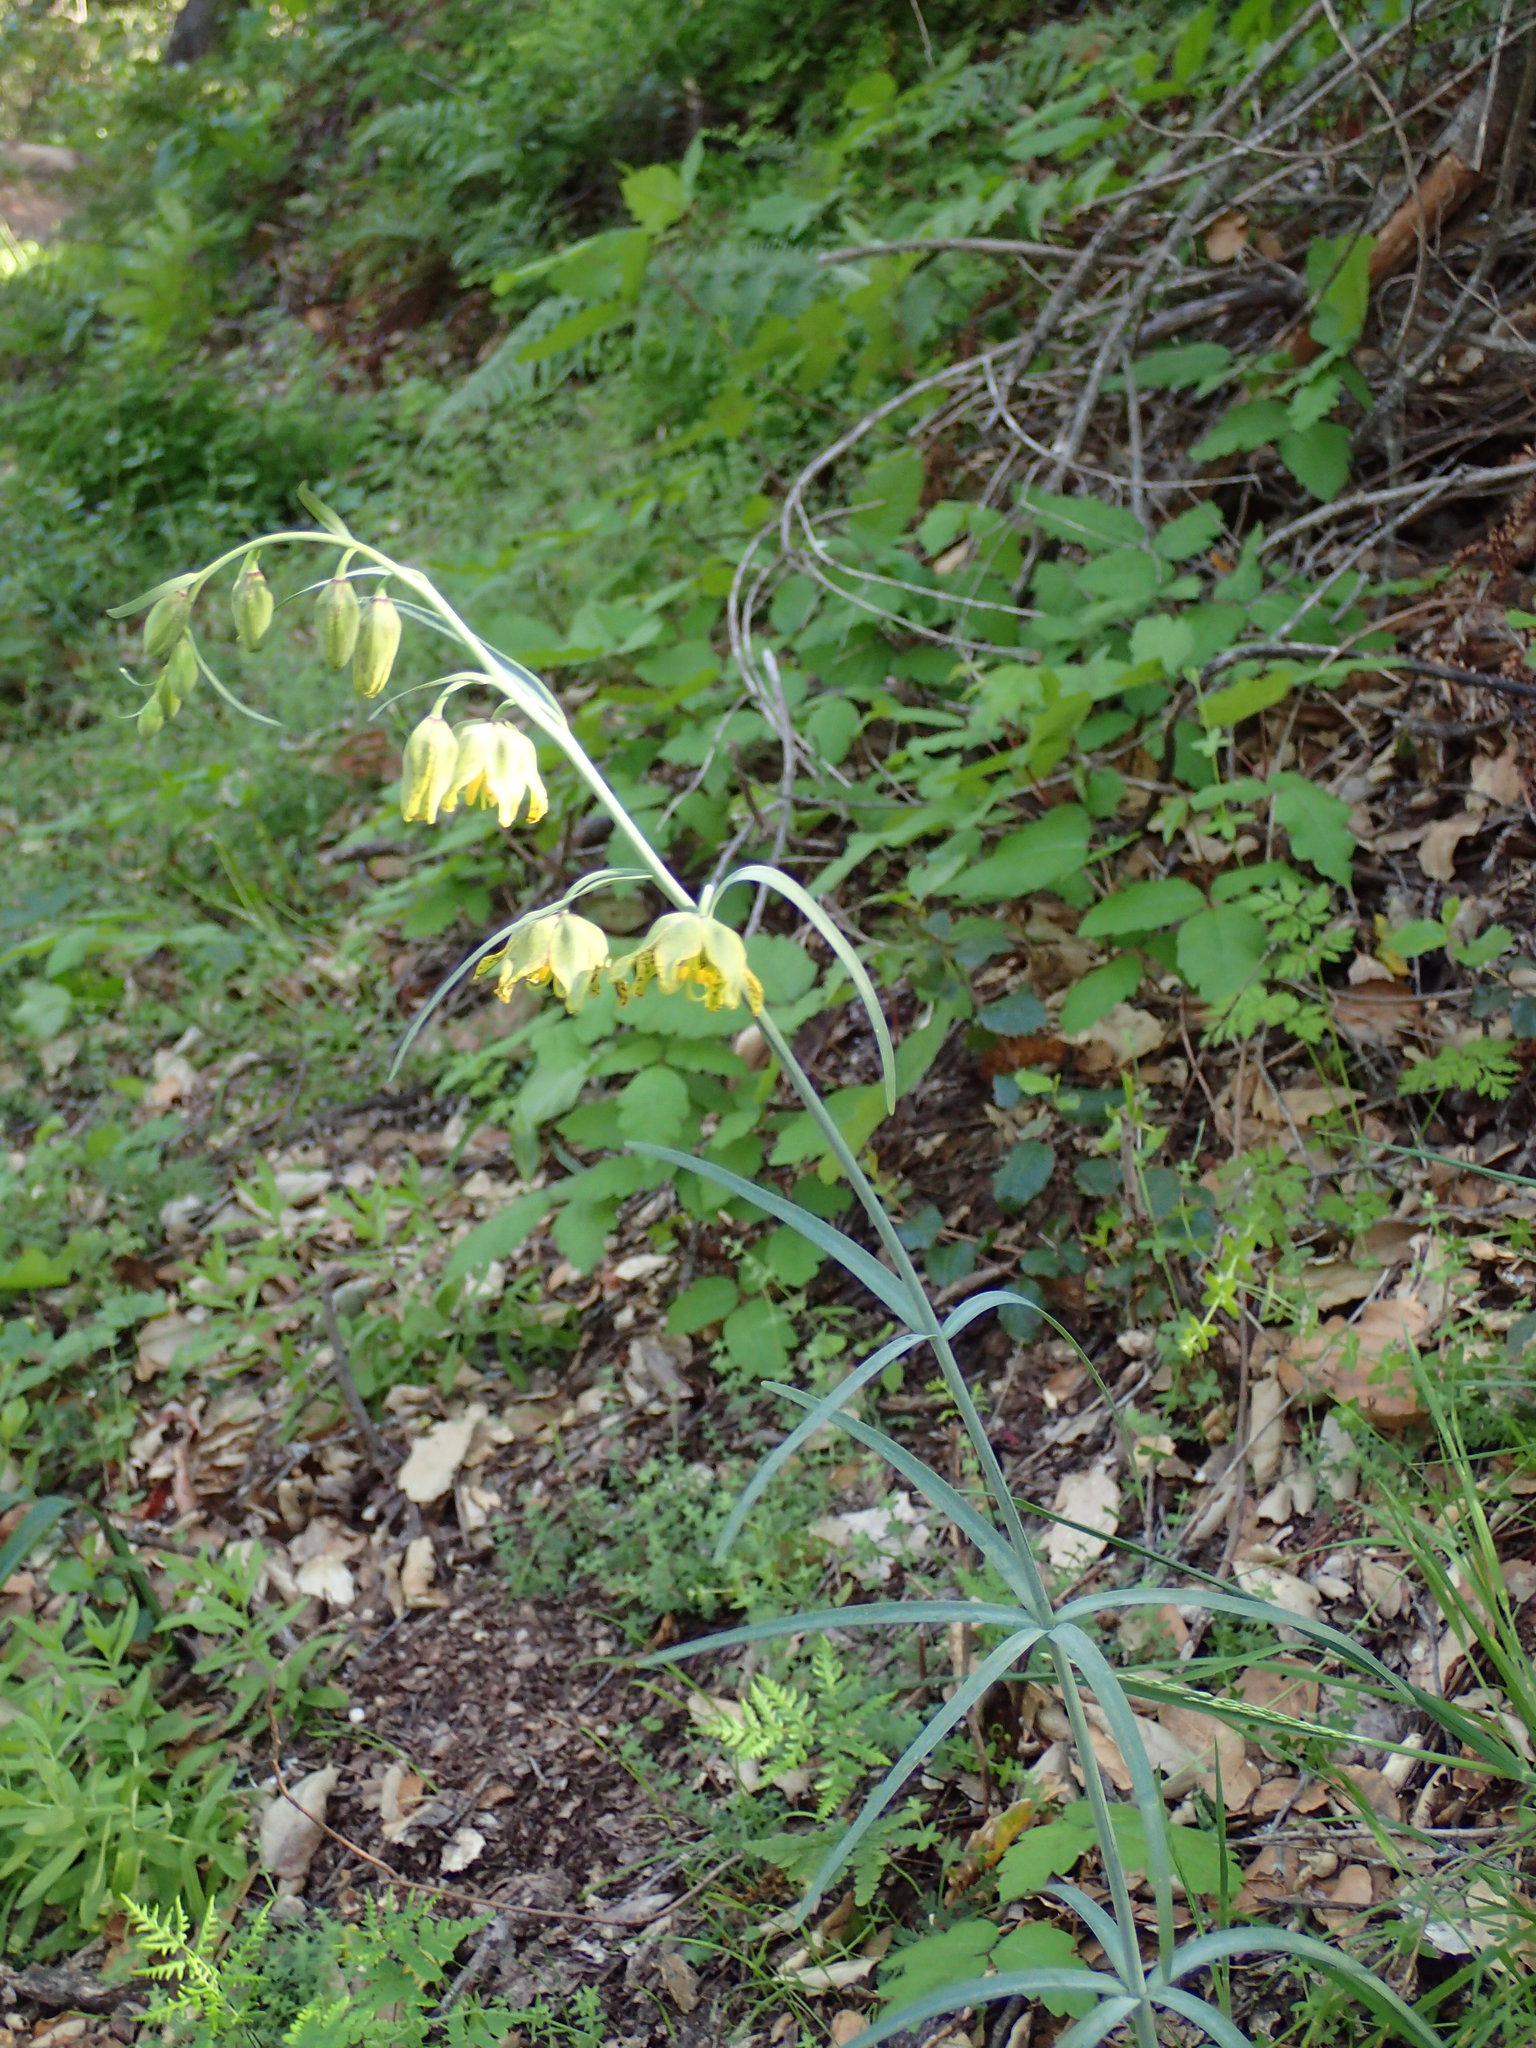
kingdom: Plantae
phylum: Tracheophyta
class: Liliopsida
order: Liliales
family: Liliaceae
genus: Fritillaria
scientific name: Fritillaria ojaiensis
